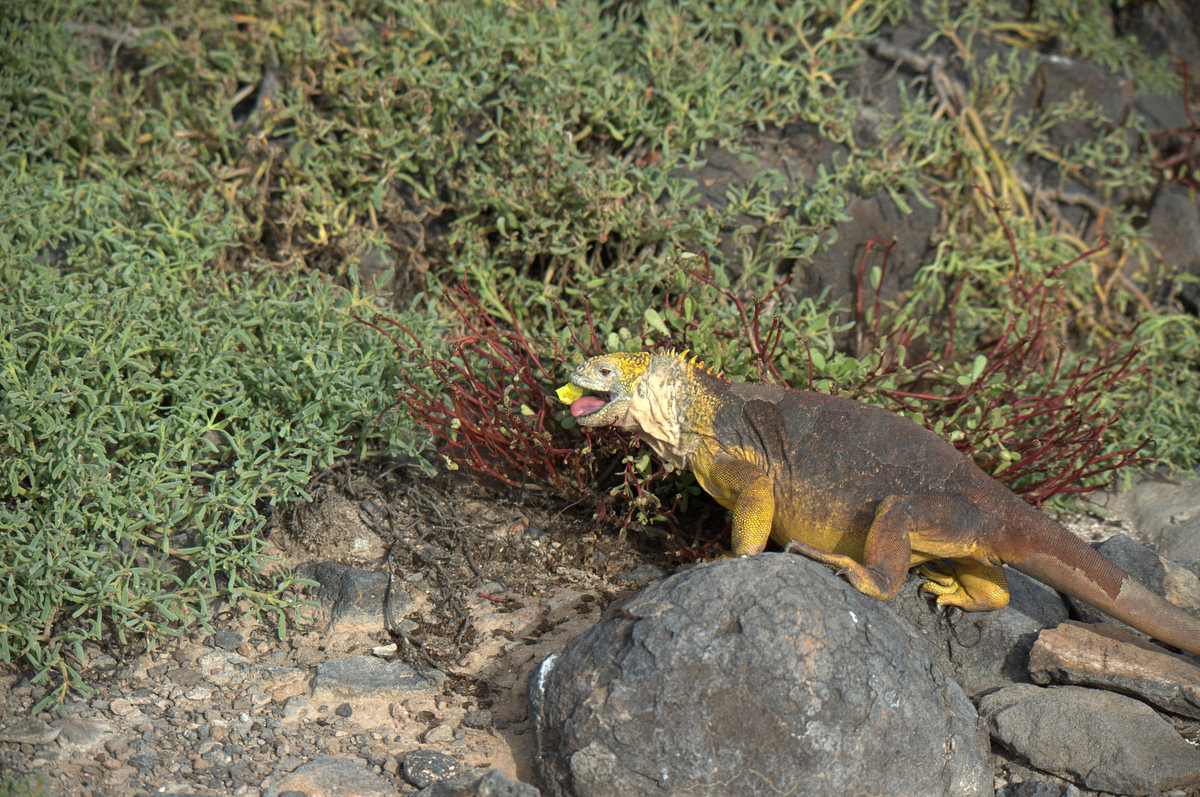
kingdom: Animalia
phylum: Chordata
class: Squamata
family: Iguanidae
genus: Conolophus
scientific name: Conolophus subcristatus
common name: Galapagos land iguana
